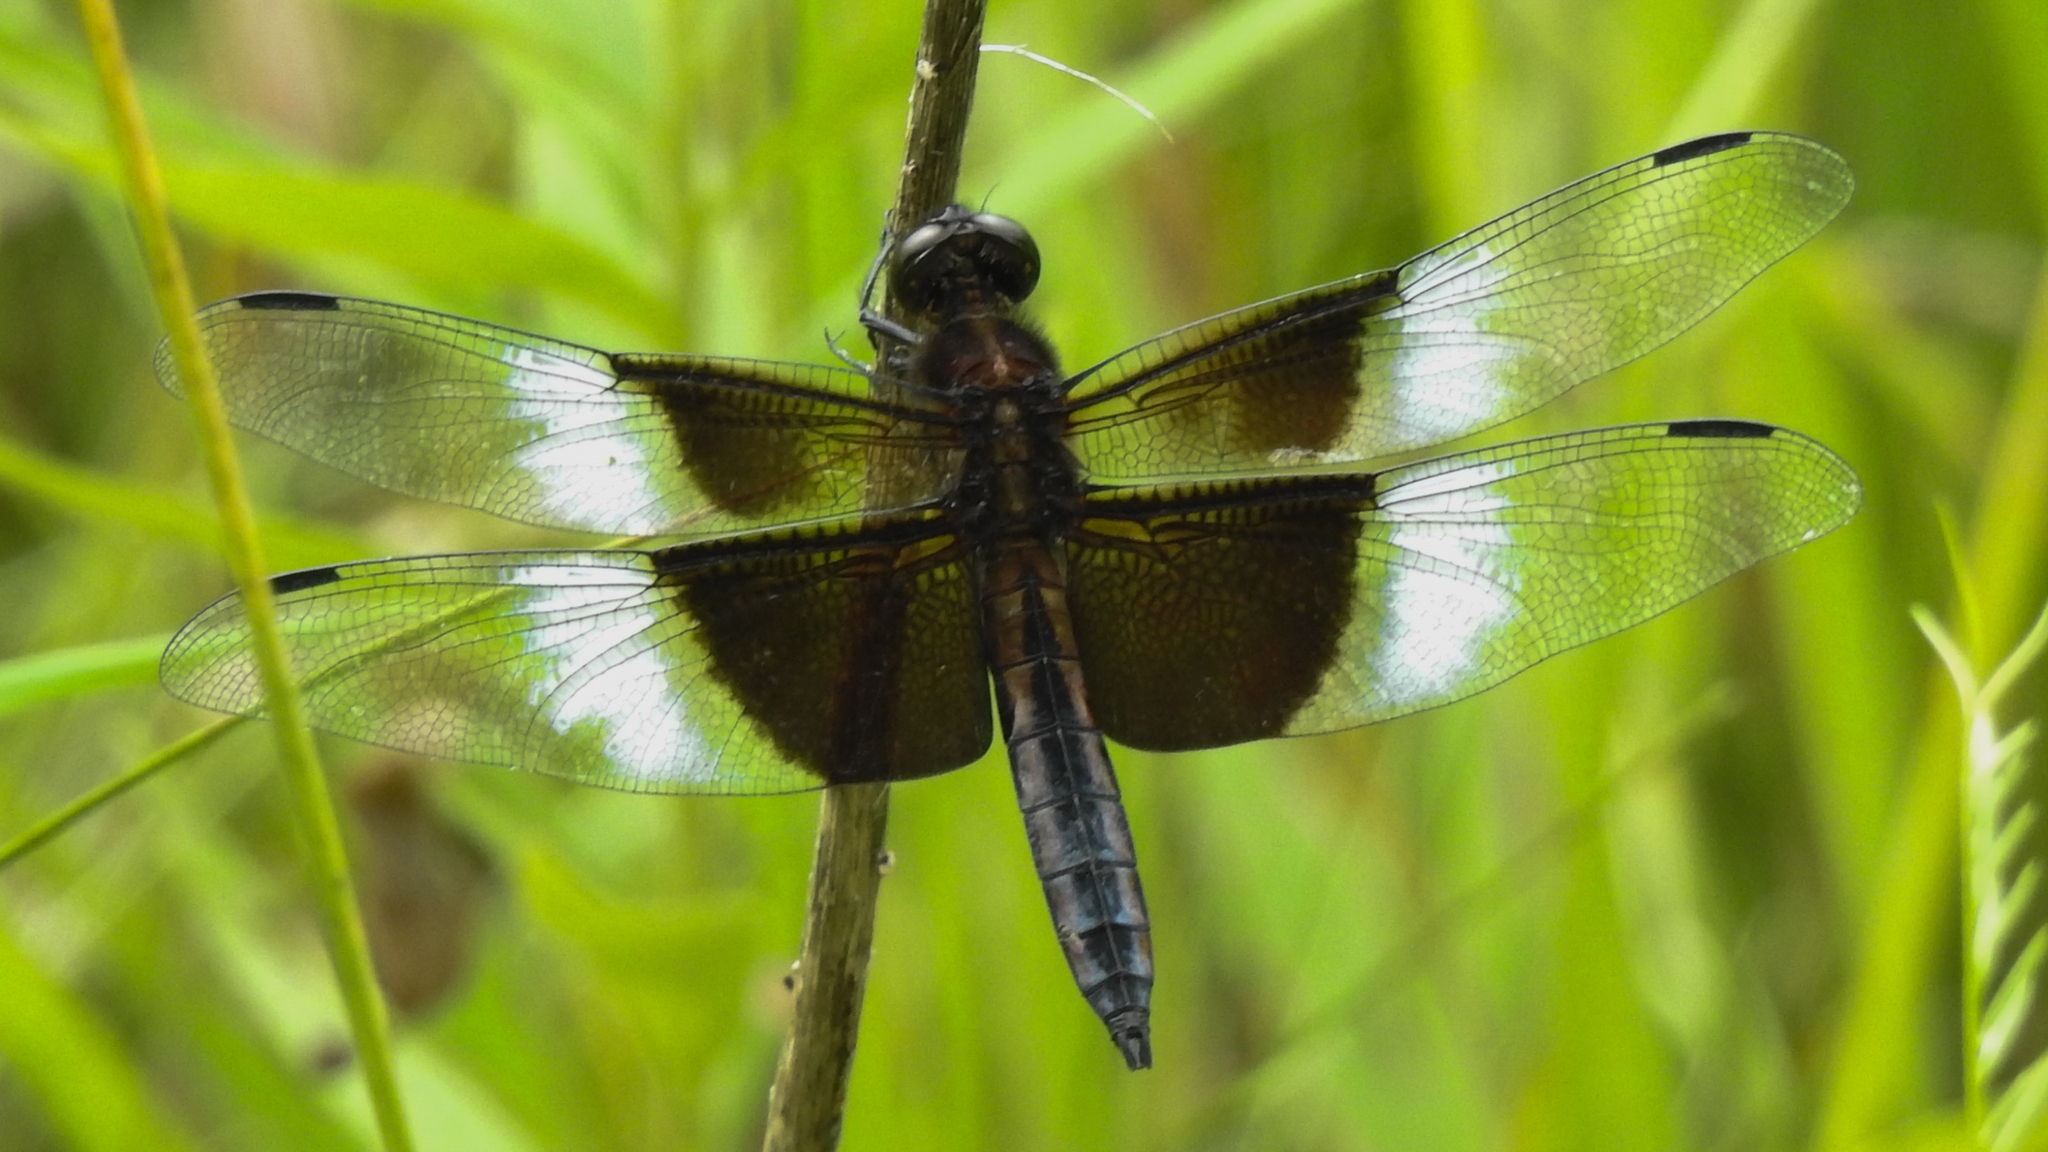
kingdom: Animalia
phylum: Arthropoda
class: Insecta
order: Odonata
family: Libellulidae
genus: Libellula
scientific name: Libellula luctuosa
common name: Widow skimmer
